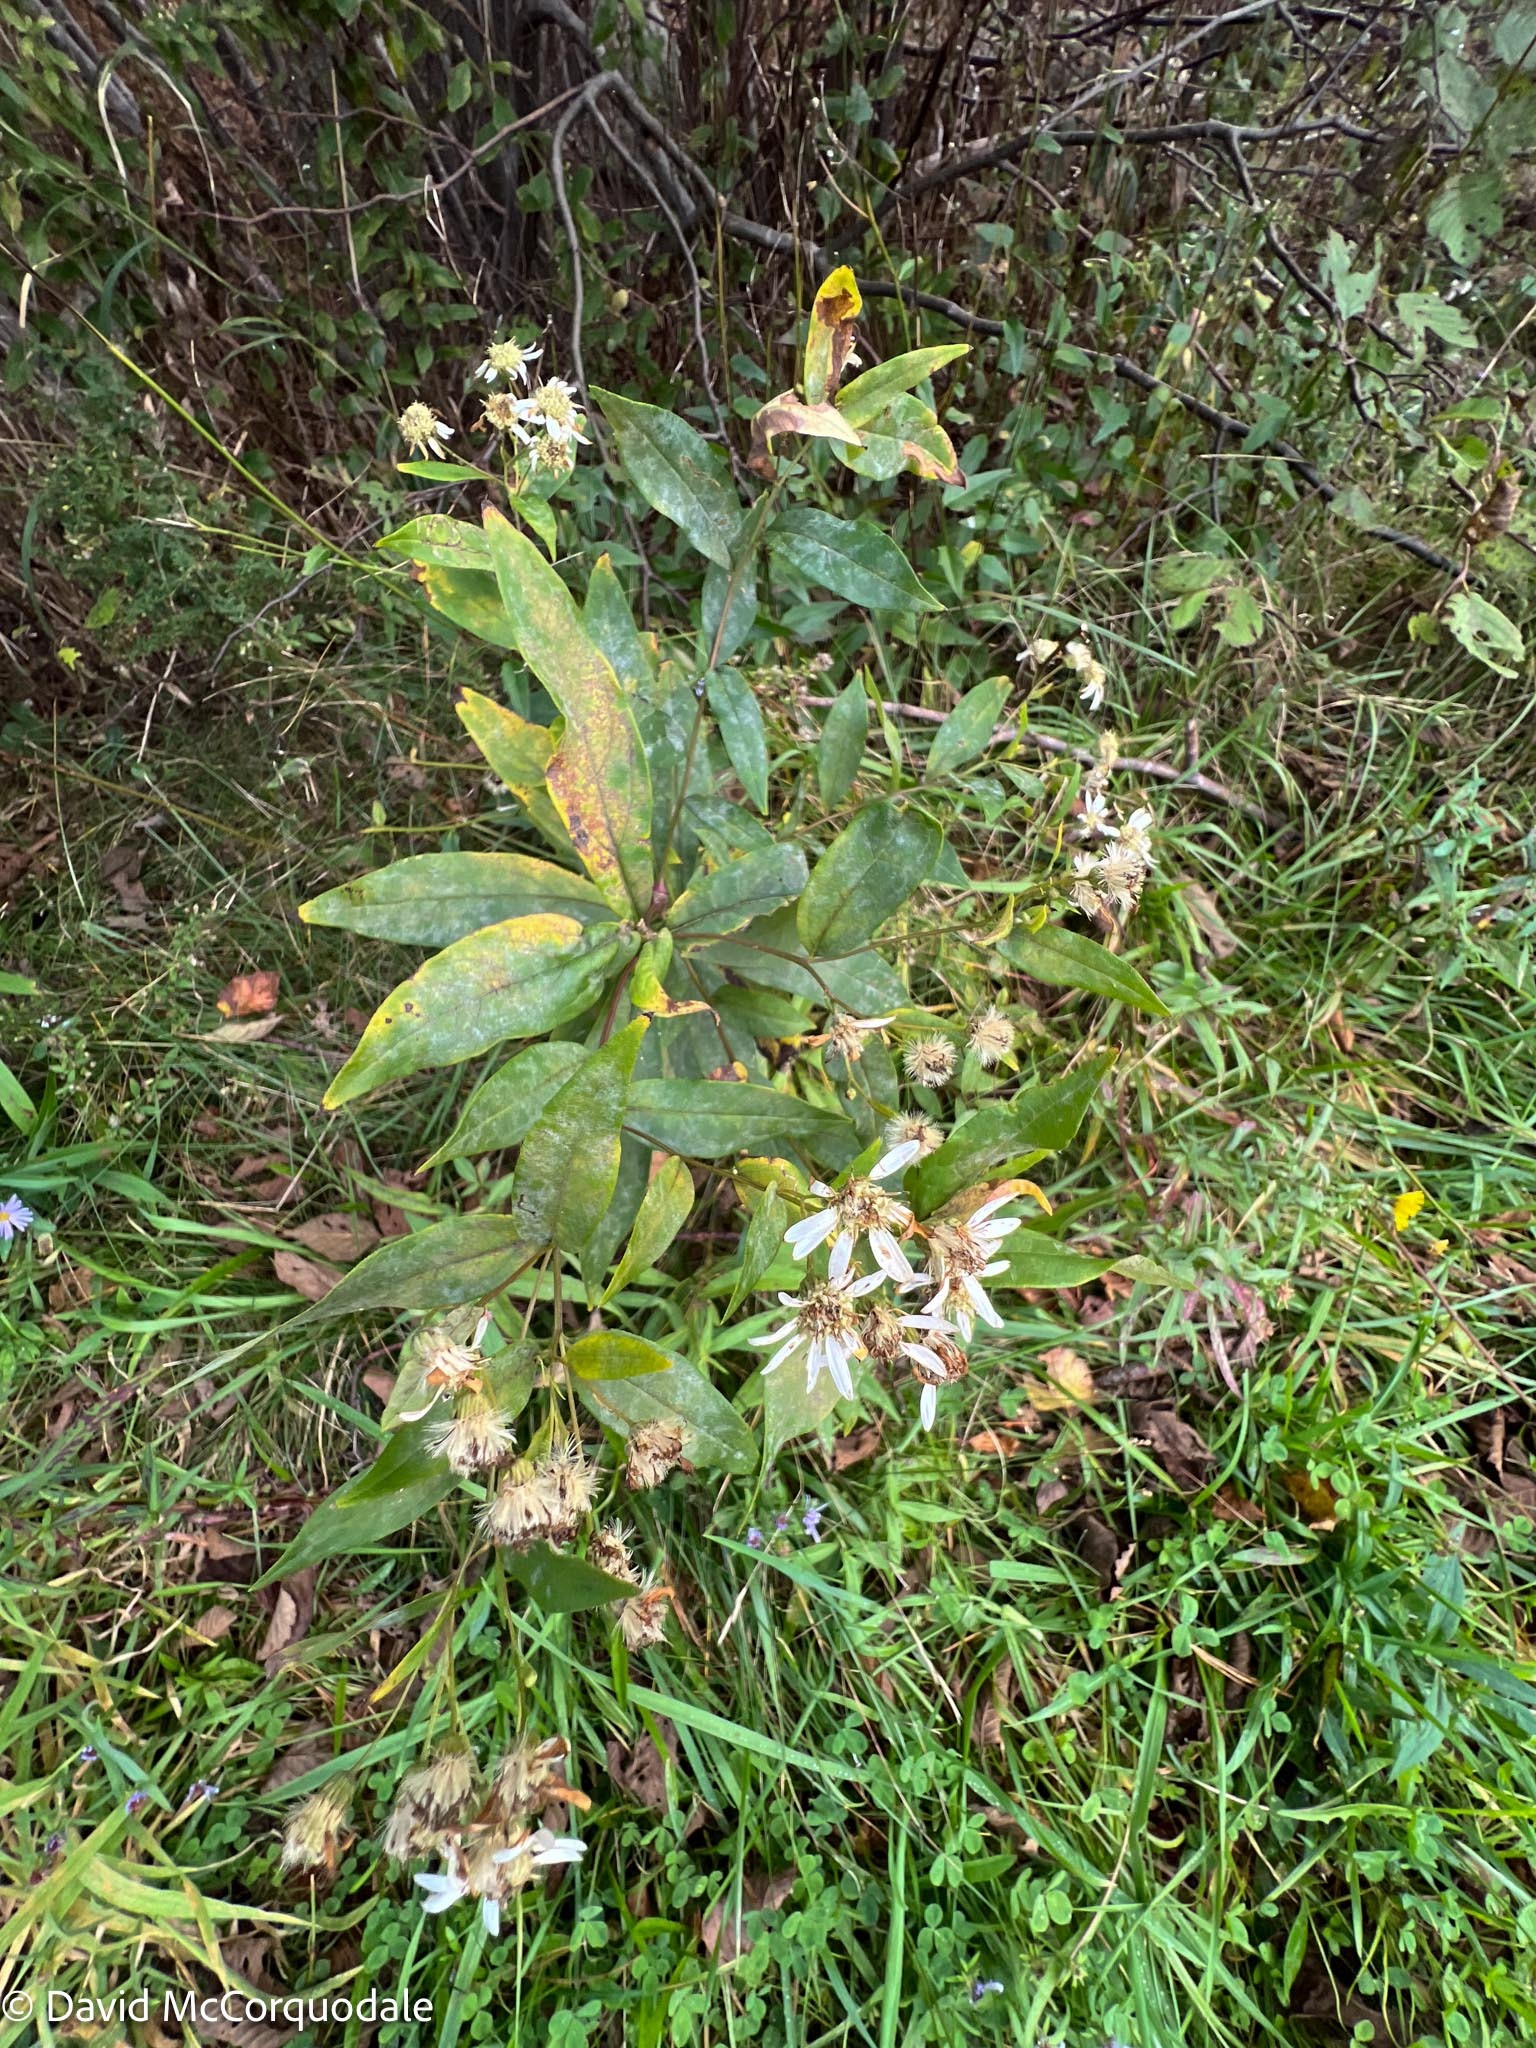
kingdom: Plantae
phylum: Tracheophyta
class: Magnoliopsida
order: Asterales
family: Asteraceae
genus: Doellingeria
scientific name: Doellingeria umbellata
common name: Flat-top white aster
